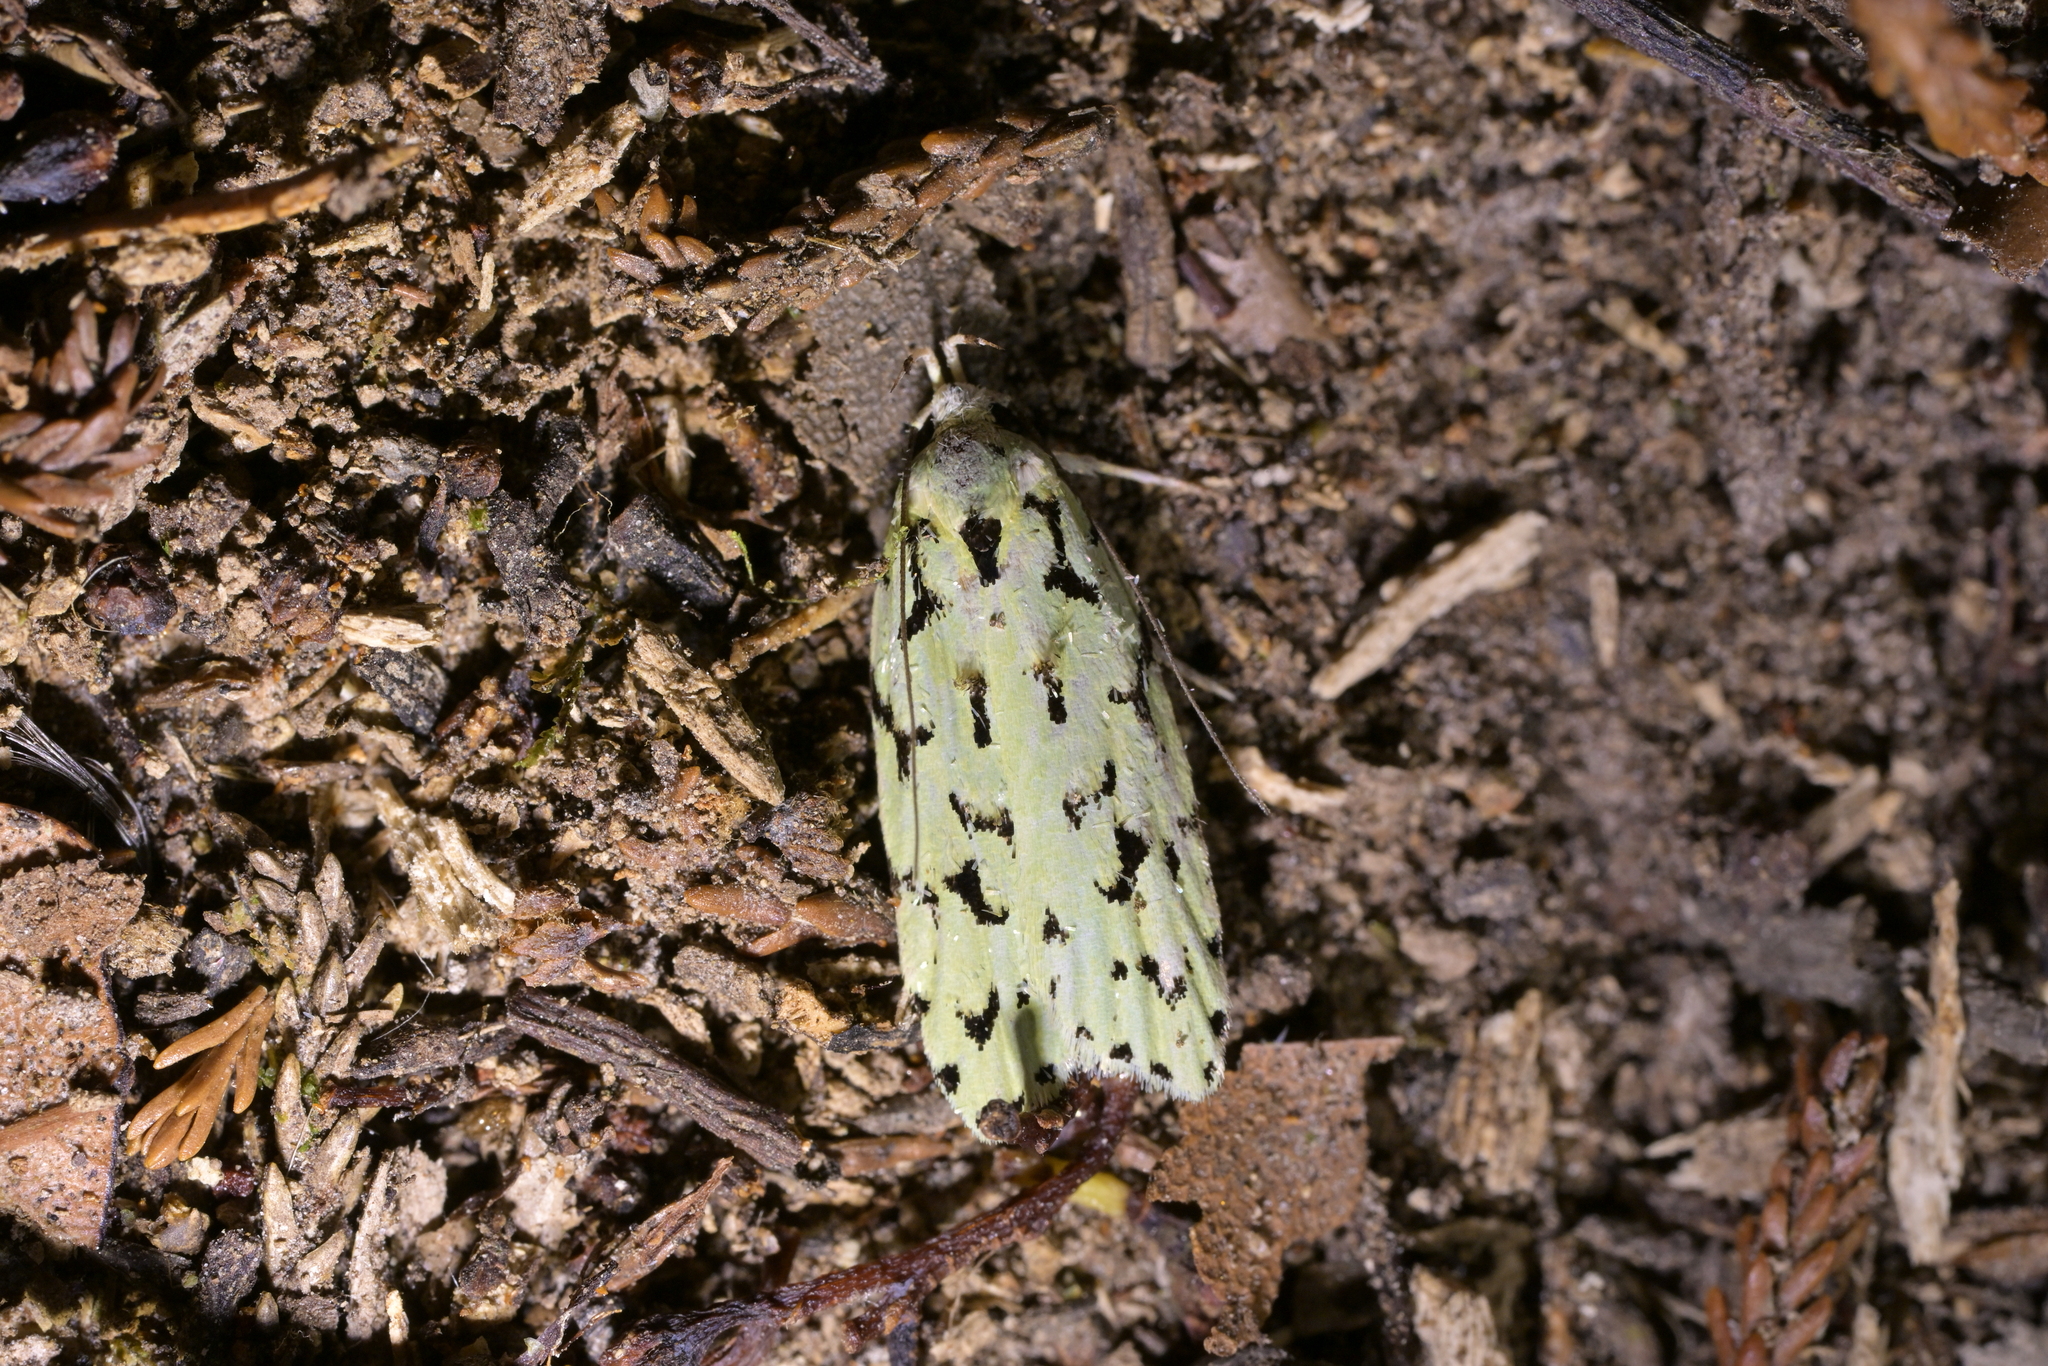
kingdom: Animalia
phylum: Arthropoda
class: Insecta
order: Lepidoptera
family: Oecophoridae
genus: Izatha
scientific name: Izatha peroneanella
